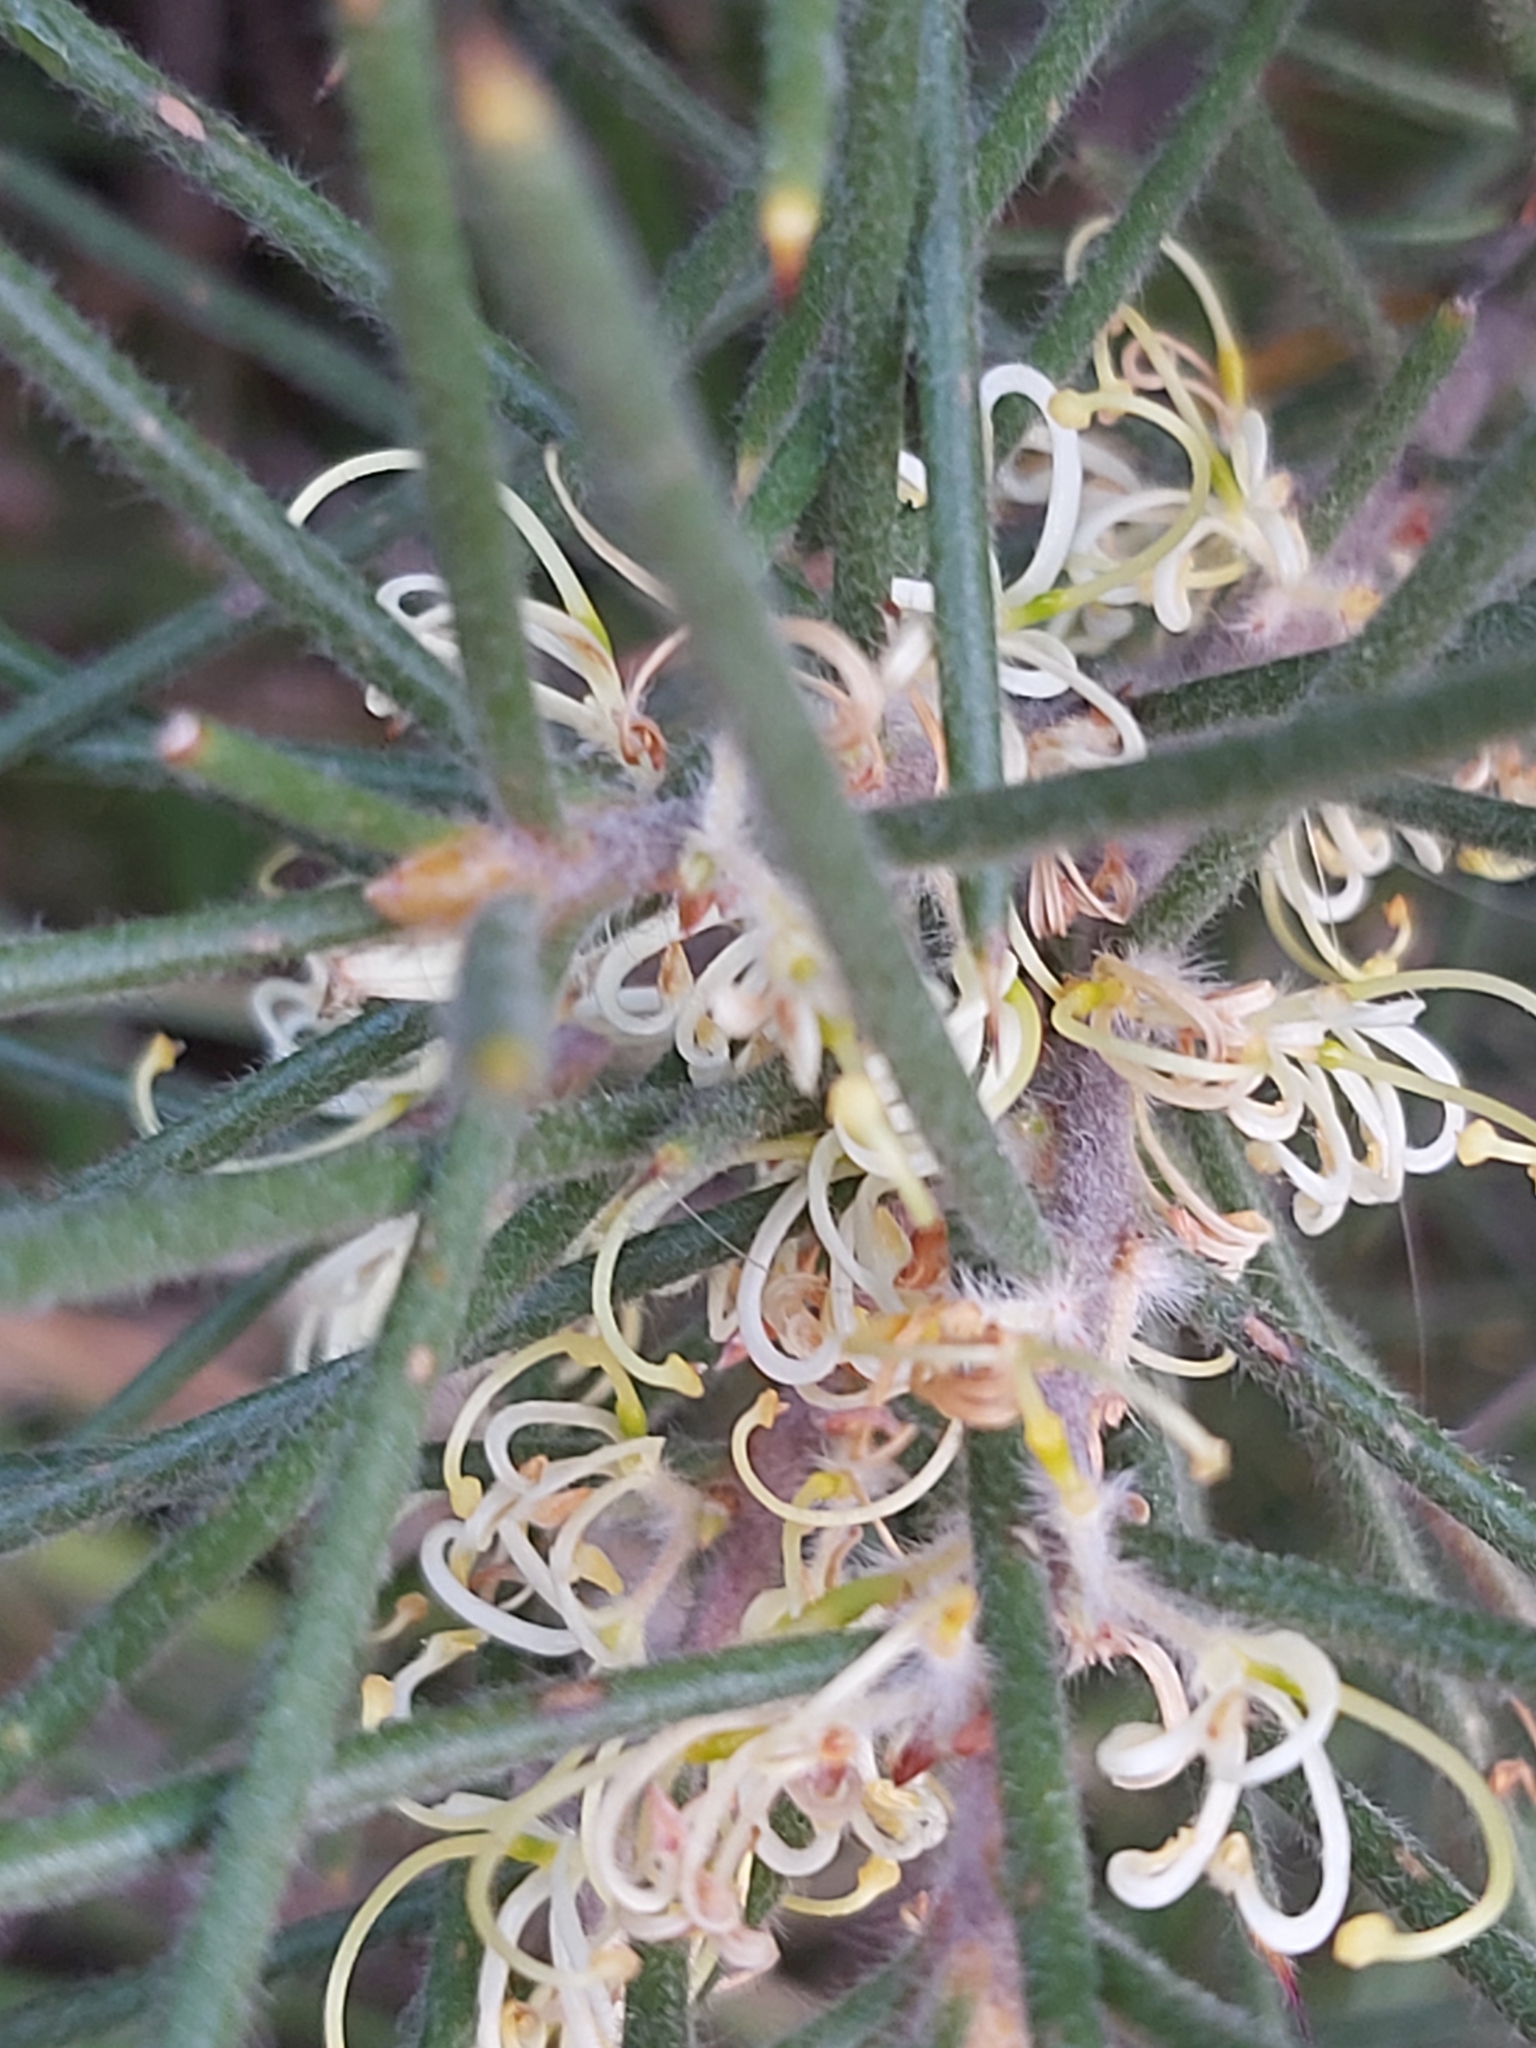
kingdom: Plantae
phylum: Tracheophyta
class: Magnoliopsida
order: Proteales
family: Proteaceae
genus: Hakea
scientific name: Hakea sericea
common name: Needle bush
